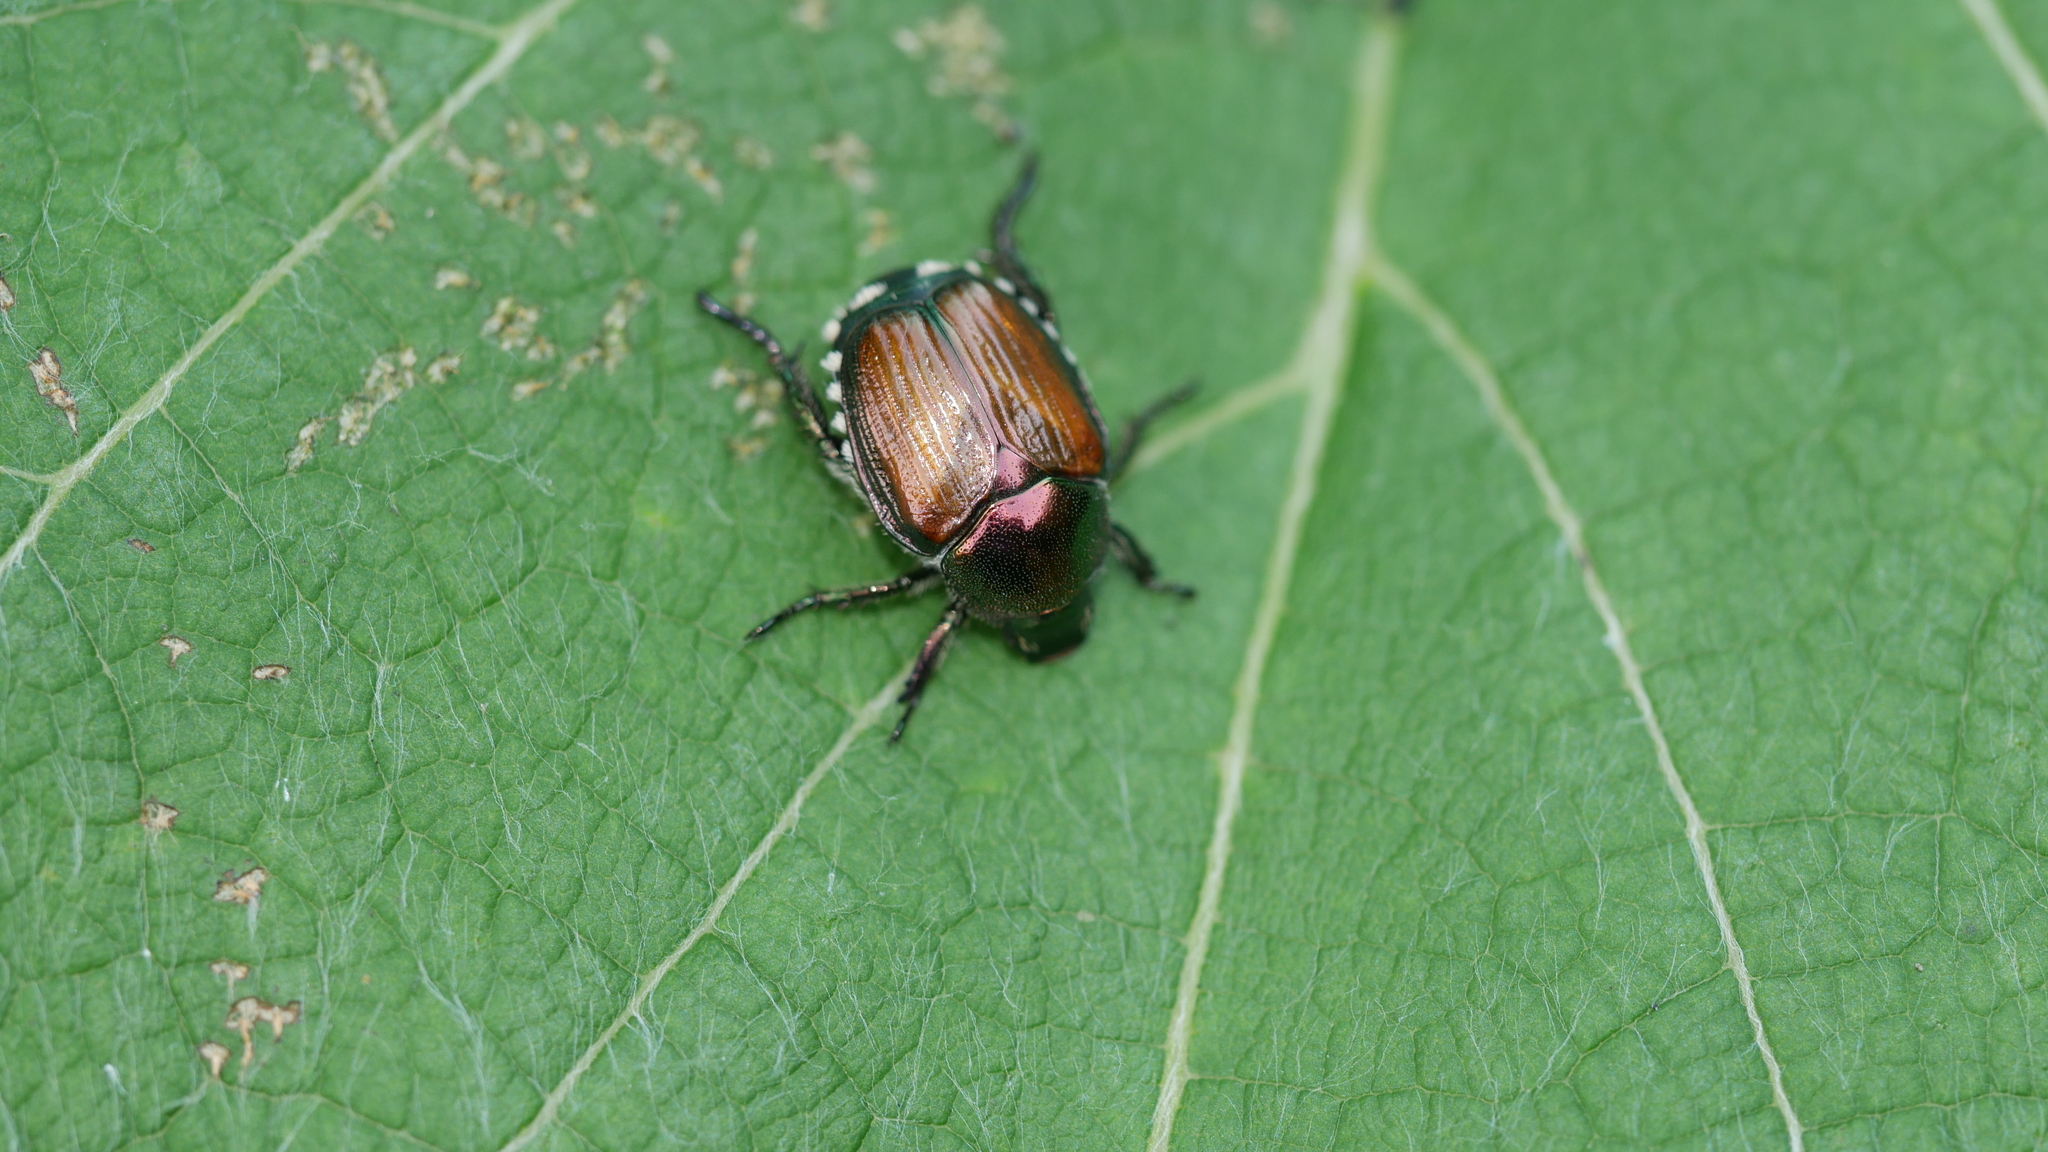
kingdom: Animalia
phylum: Arthropoda
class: Insecta
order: Coleoptera
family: Scarabaeidae
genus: Popillia
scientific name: Popillia japonica
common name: Japanese beetle
